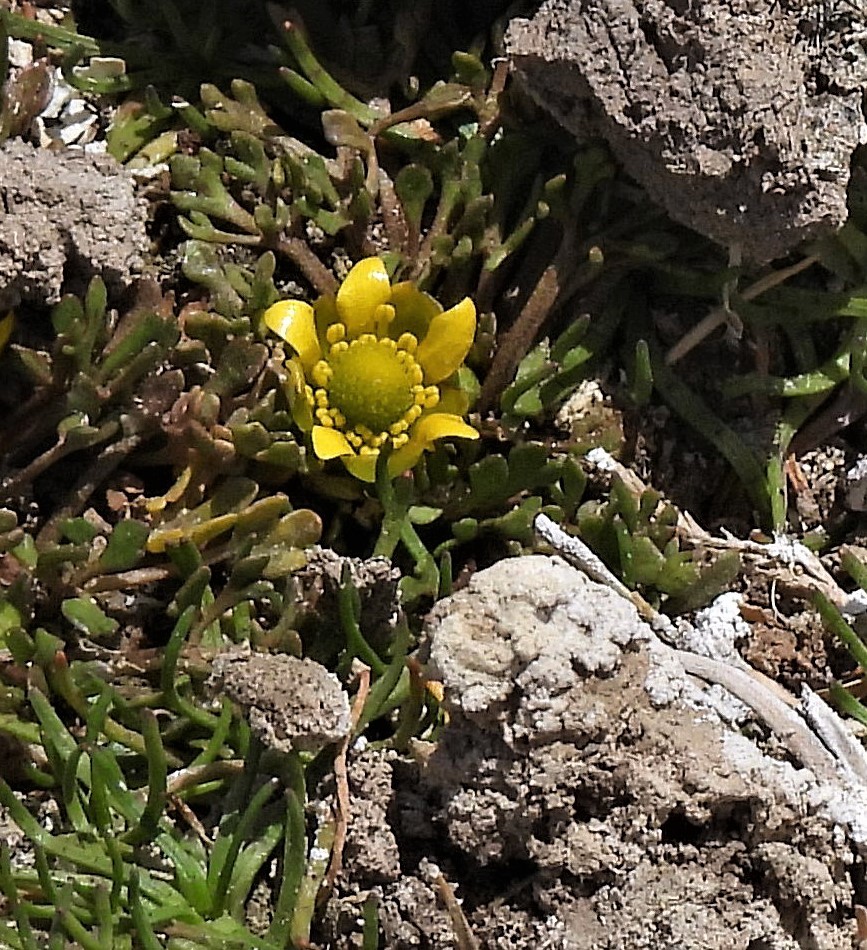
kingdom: Plantae
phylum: Tracheophyta
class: Magnoliopsida
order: Ranunculales
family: Ranunculaceae
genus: Halerpestes
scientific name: Halerpestes exilis
